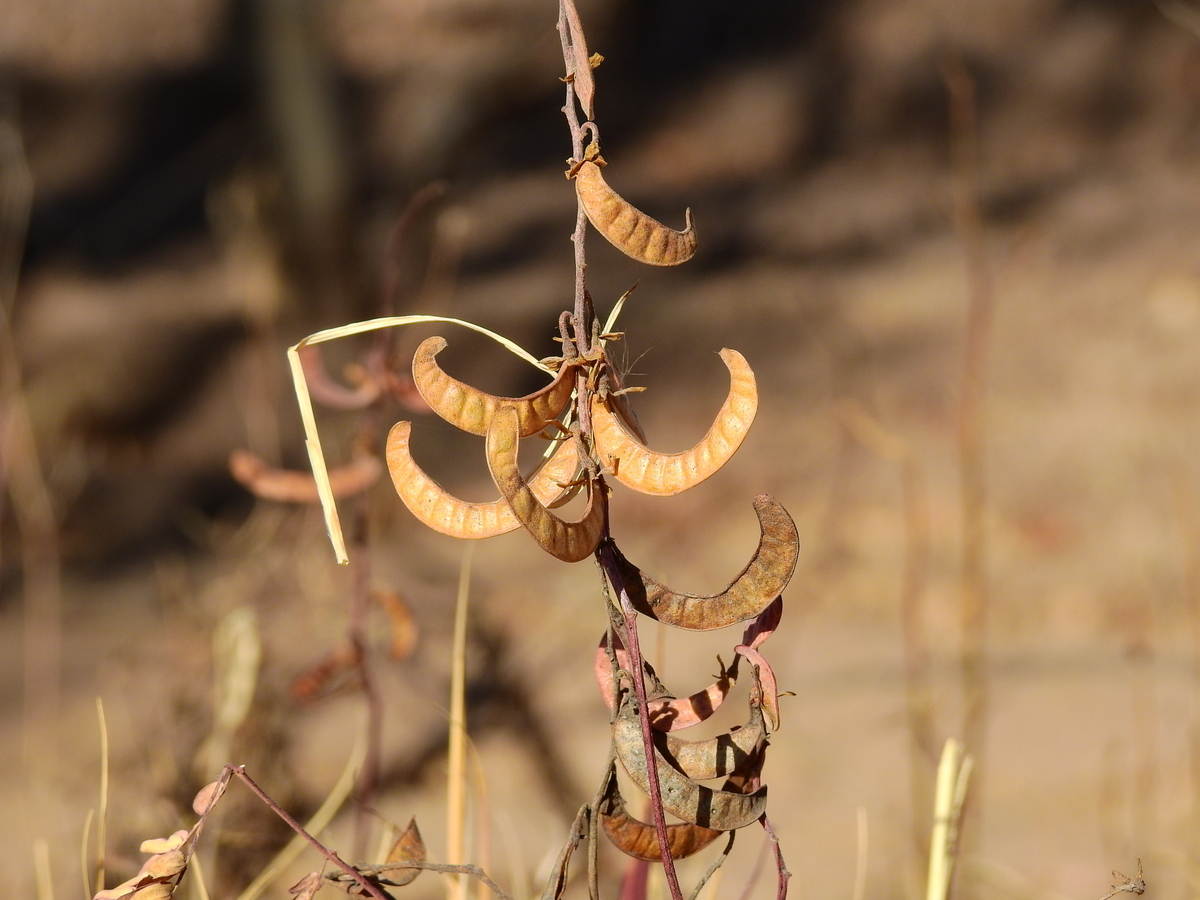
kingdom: Plantae
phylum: Tracheophyta
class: Magnoliopsida
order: Fabales
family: Fabaceae
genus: Hoffmannseggia
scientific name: Hoffmannseggia glauca
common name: Pignut
